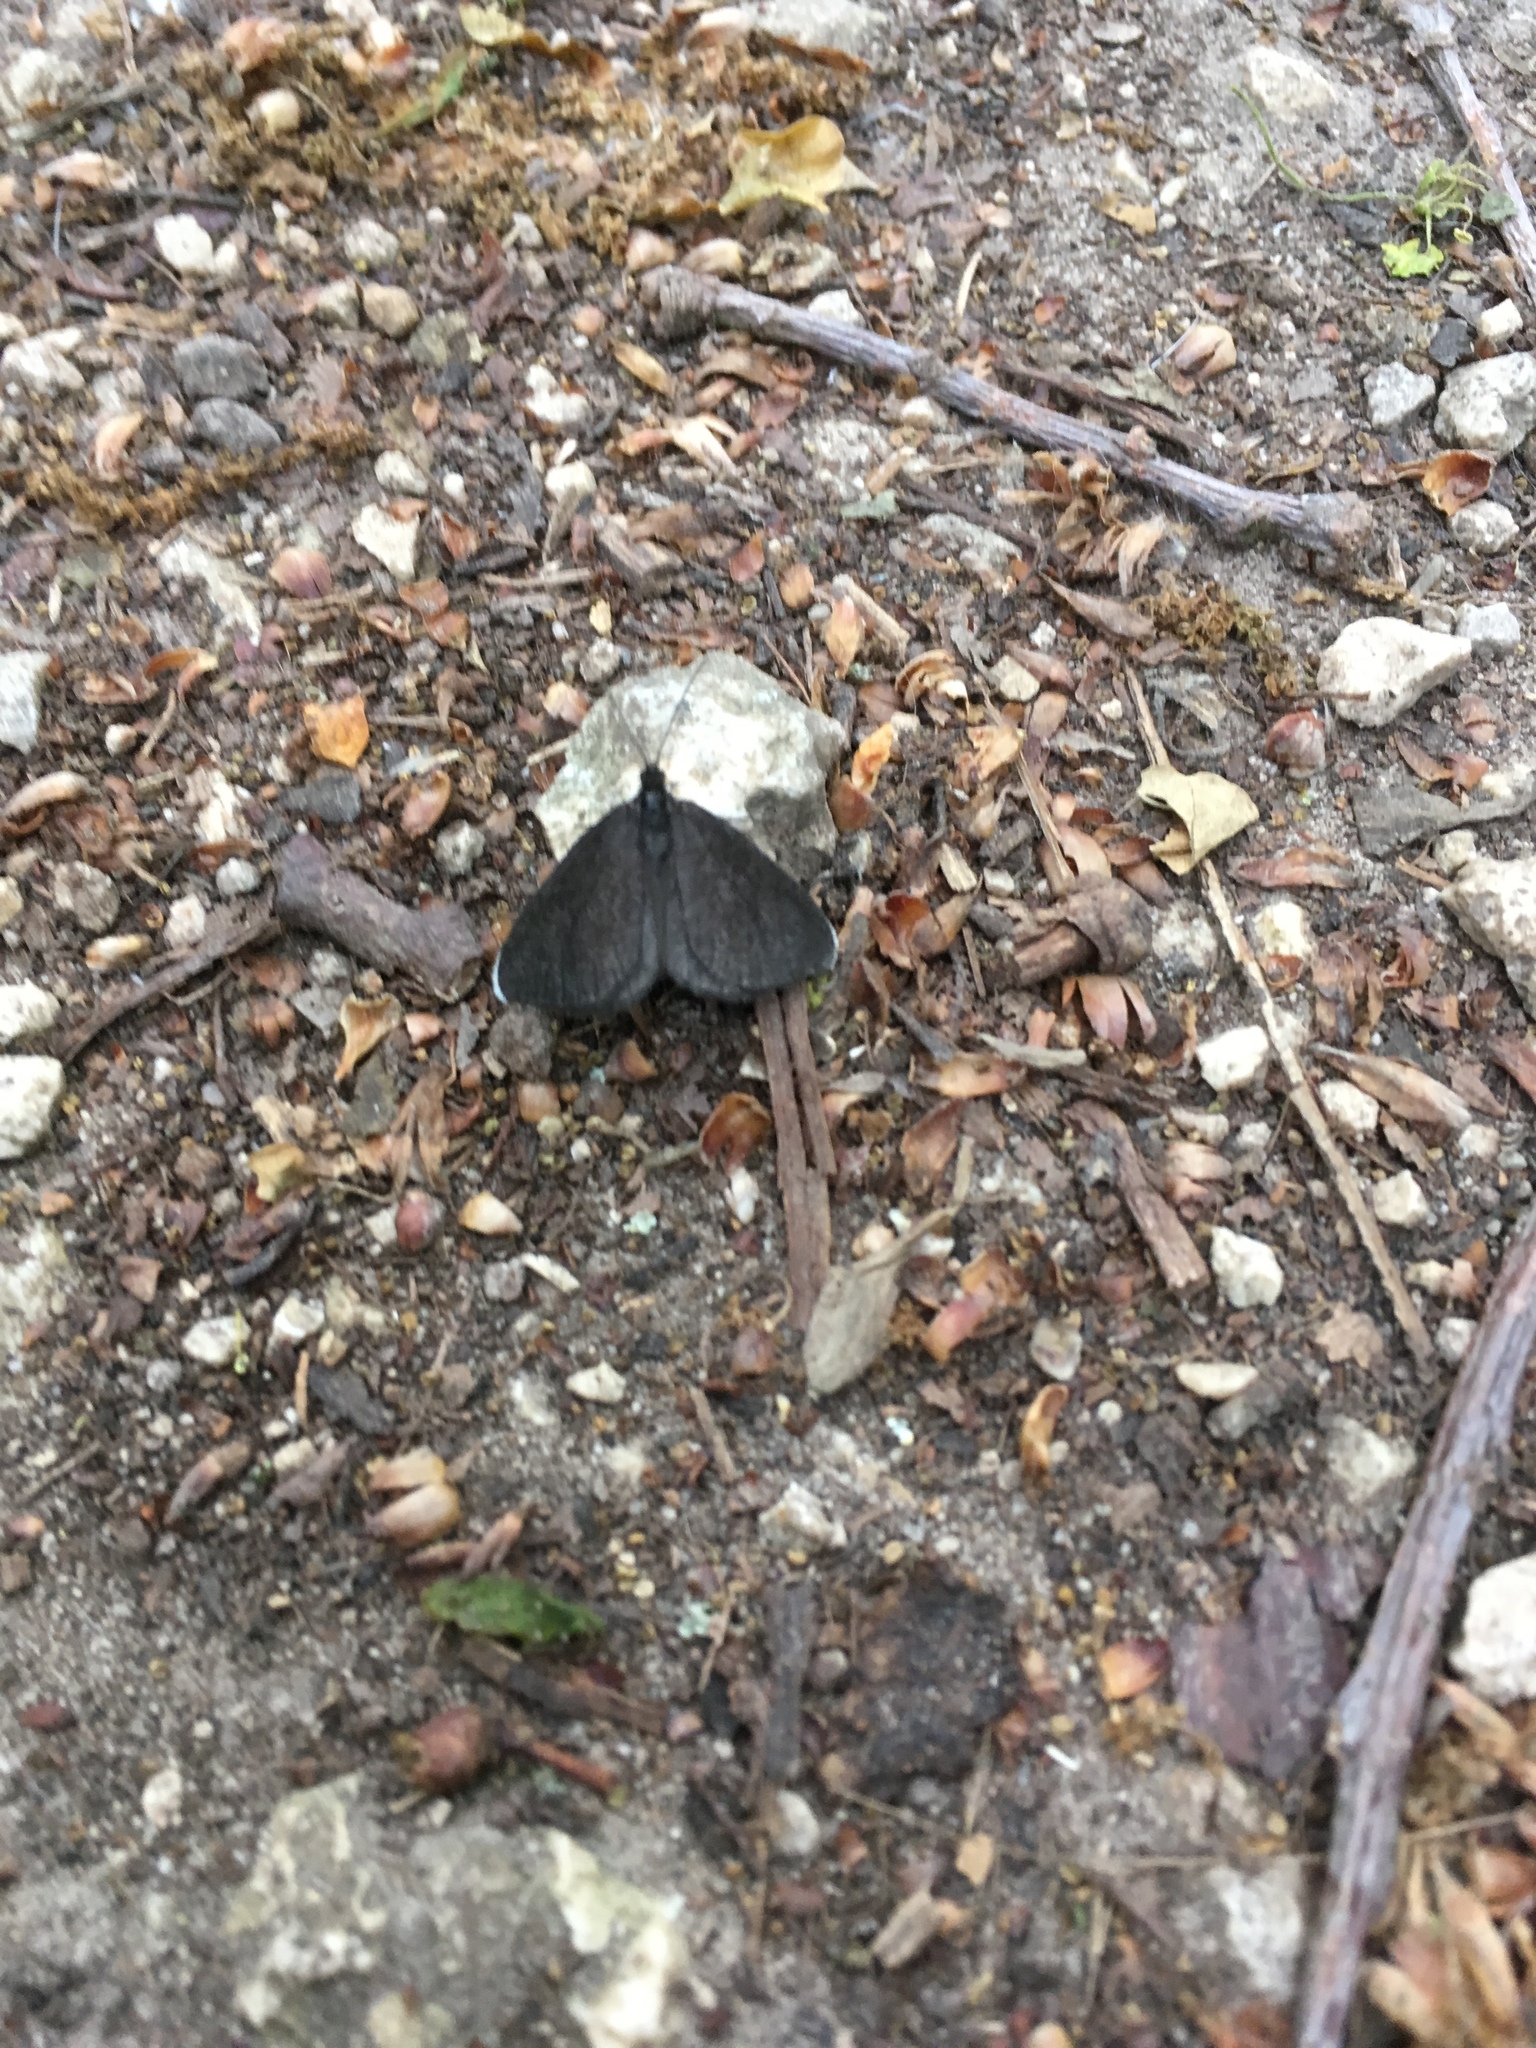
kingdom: Animalia
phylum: Arthropoda
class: Insecta
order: Lepidoptera
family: Geometridae
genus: Odezia
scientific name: Odezia atrata
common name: Chimney sweeper
